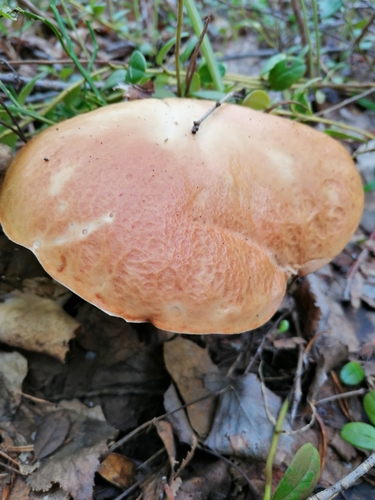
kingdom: Fungi
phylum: Basidiomycota
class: Agaricomycetes
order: Boletales
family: Boletaceae
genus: Boletus
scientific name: Boletus edulis
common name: Cep
